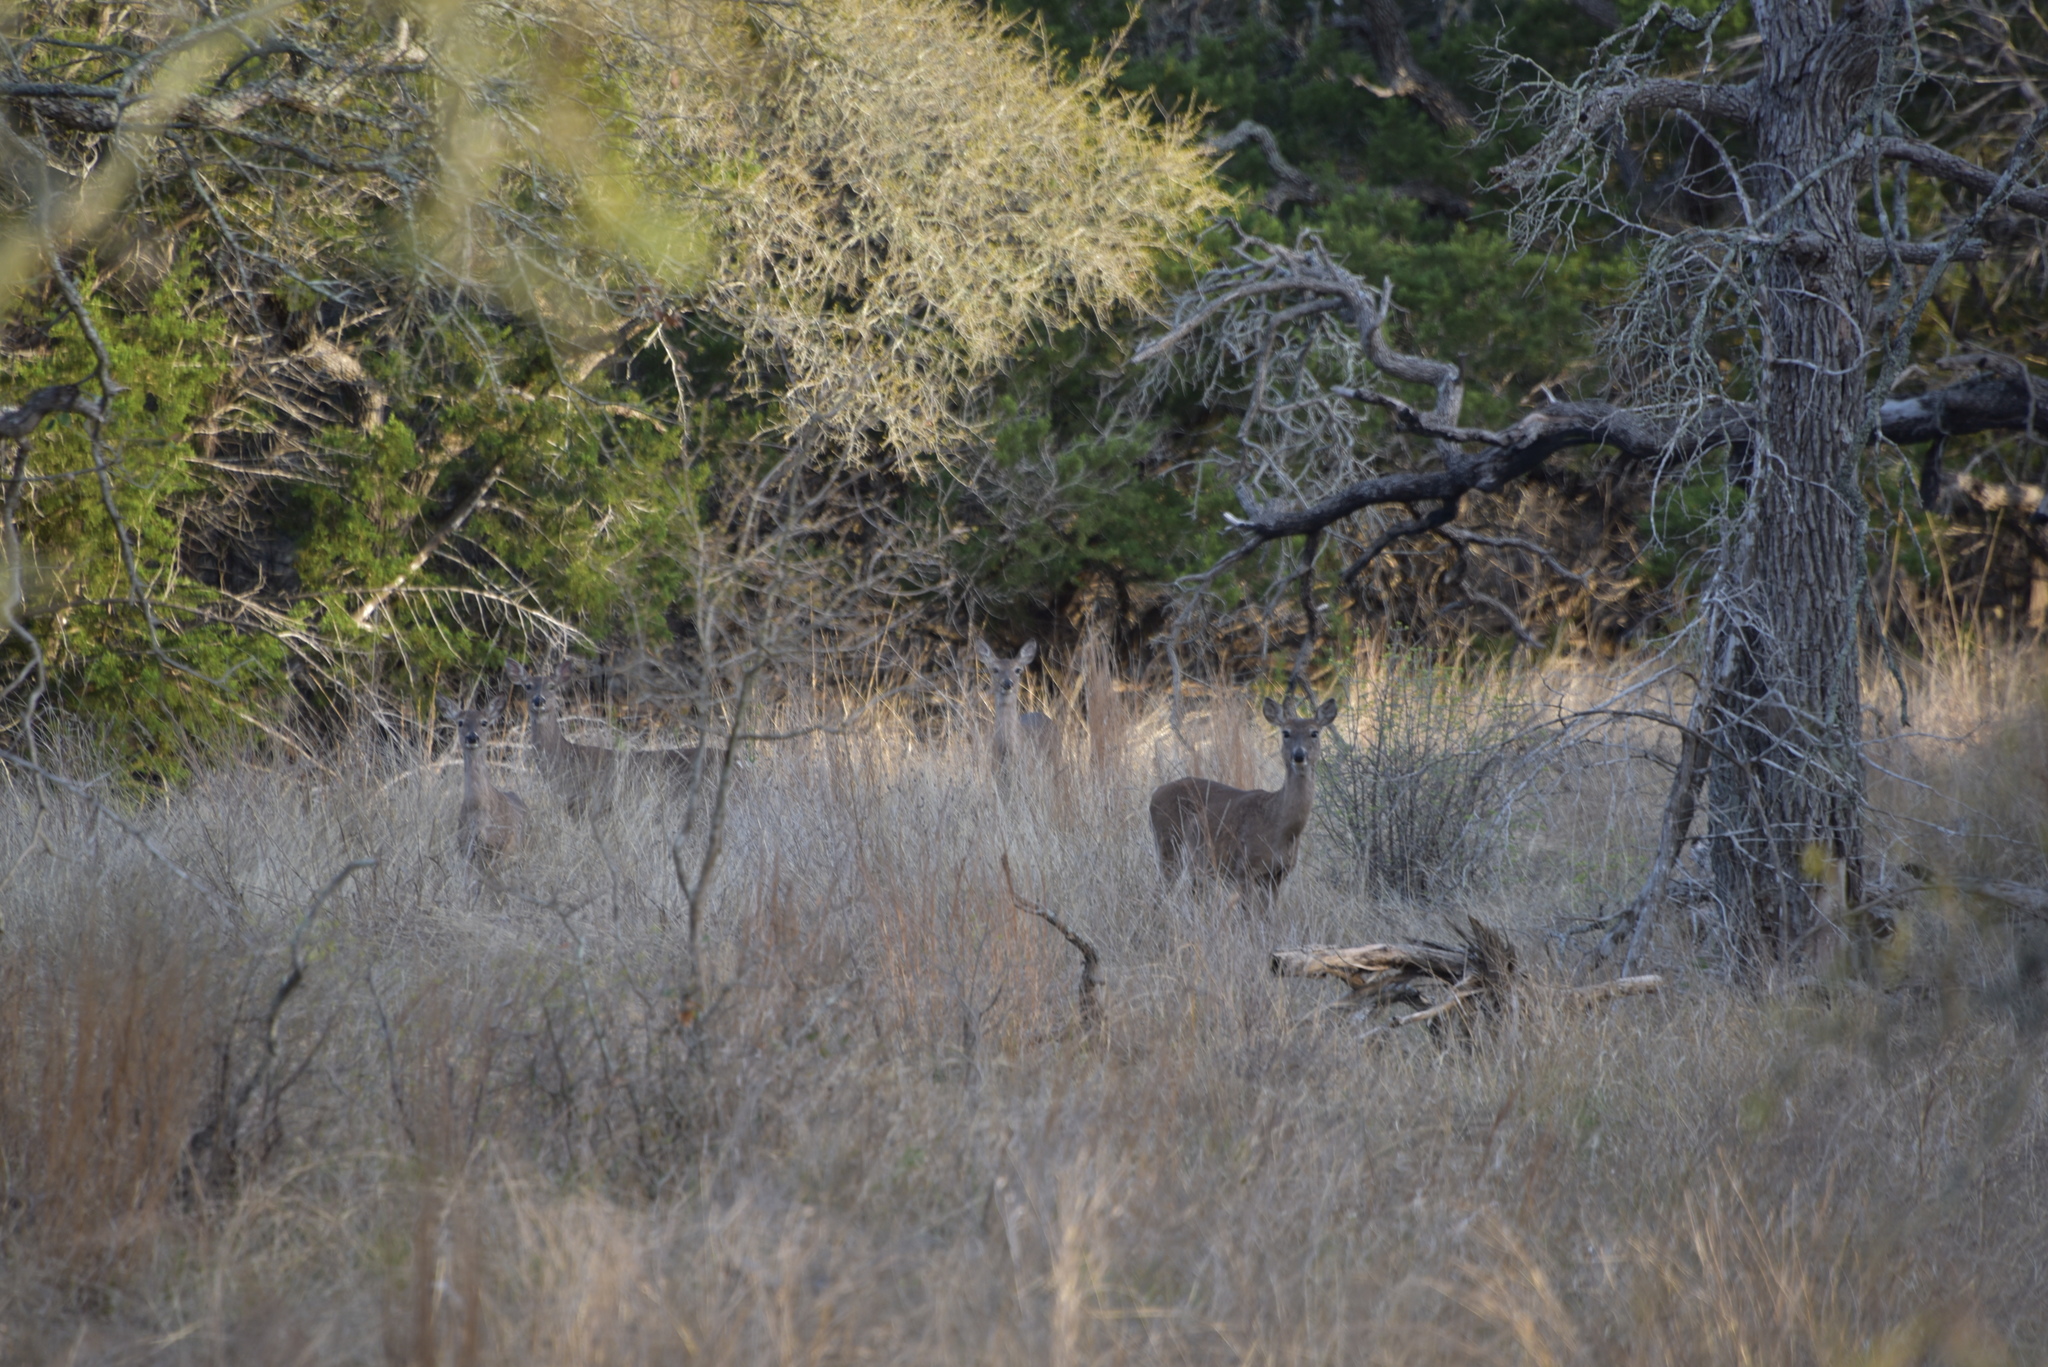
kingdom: Animalia
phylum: Chordata
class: Mammalia
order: Artiodactyla
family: Cervidae
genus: Odocoileus
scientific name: Odocoileus virginianus
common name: White-tailed deer
